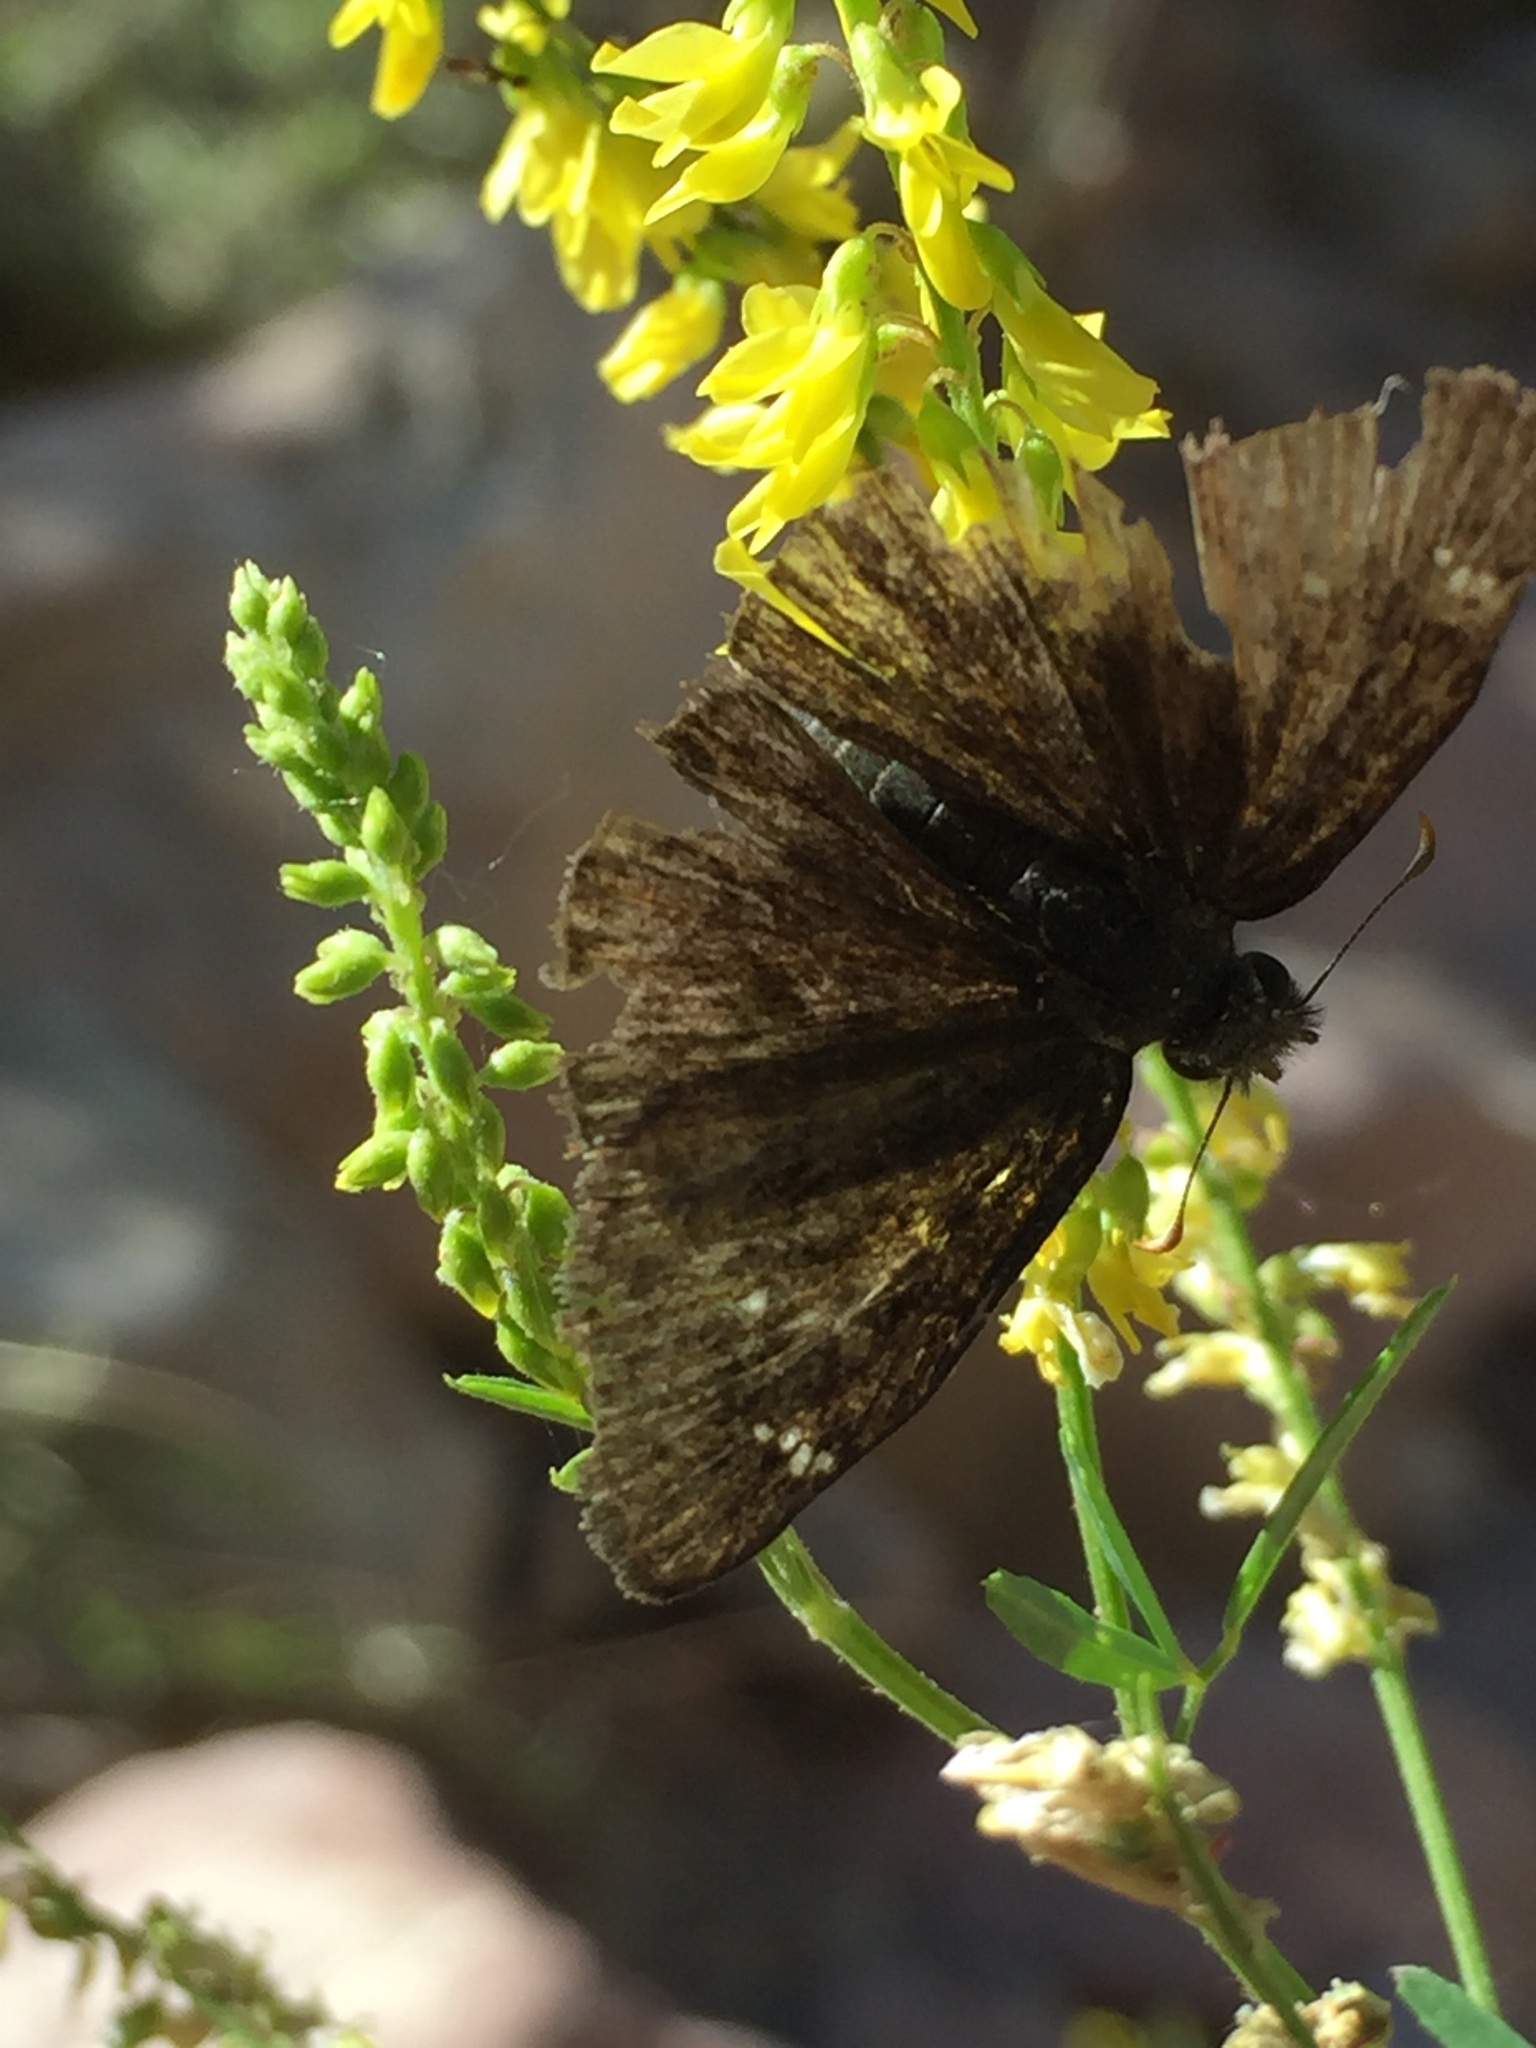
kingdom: Animalia
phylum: Arthropoda
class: Insecta
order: Lepidoptera
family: Hesperiidae
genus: Erynnis
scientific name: Erynnis afranius
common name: Afranius duskywing
